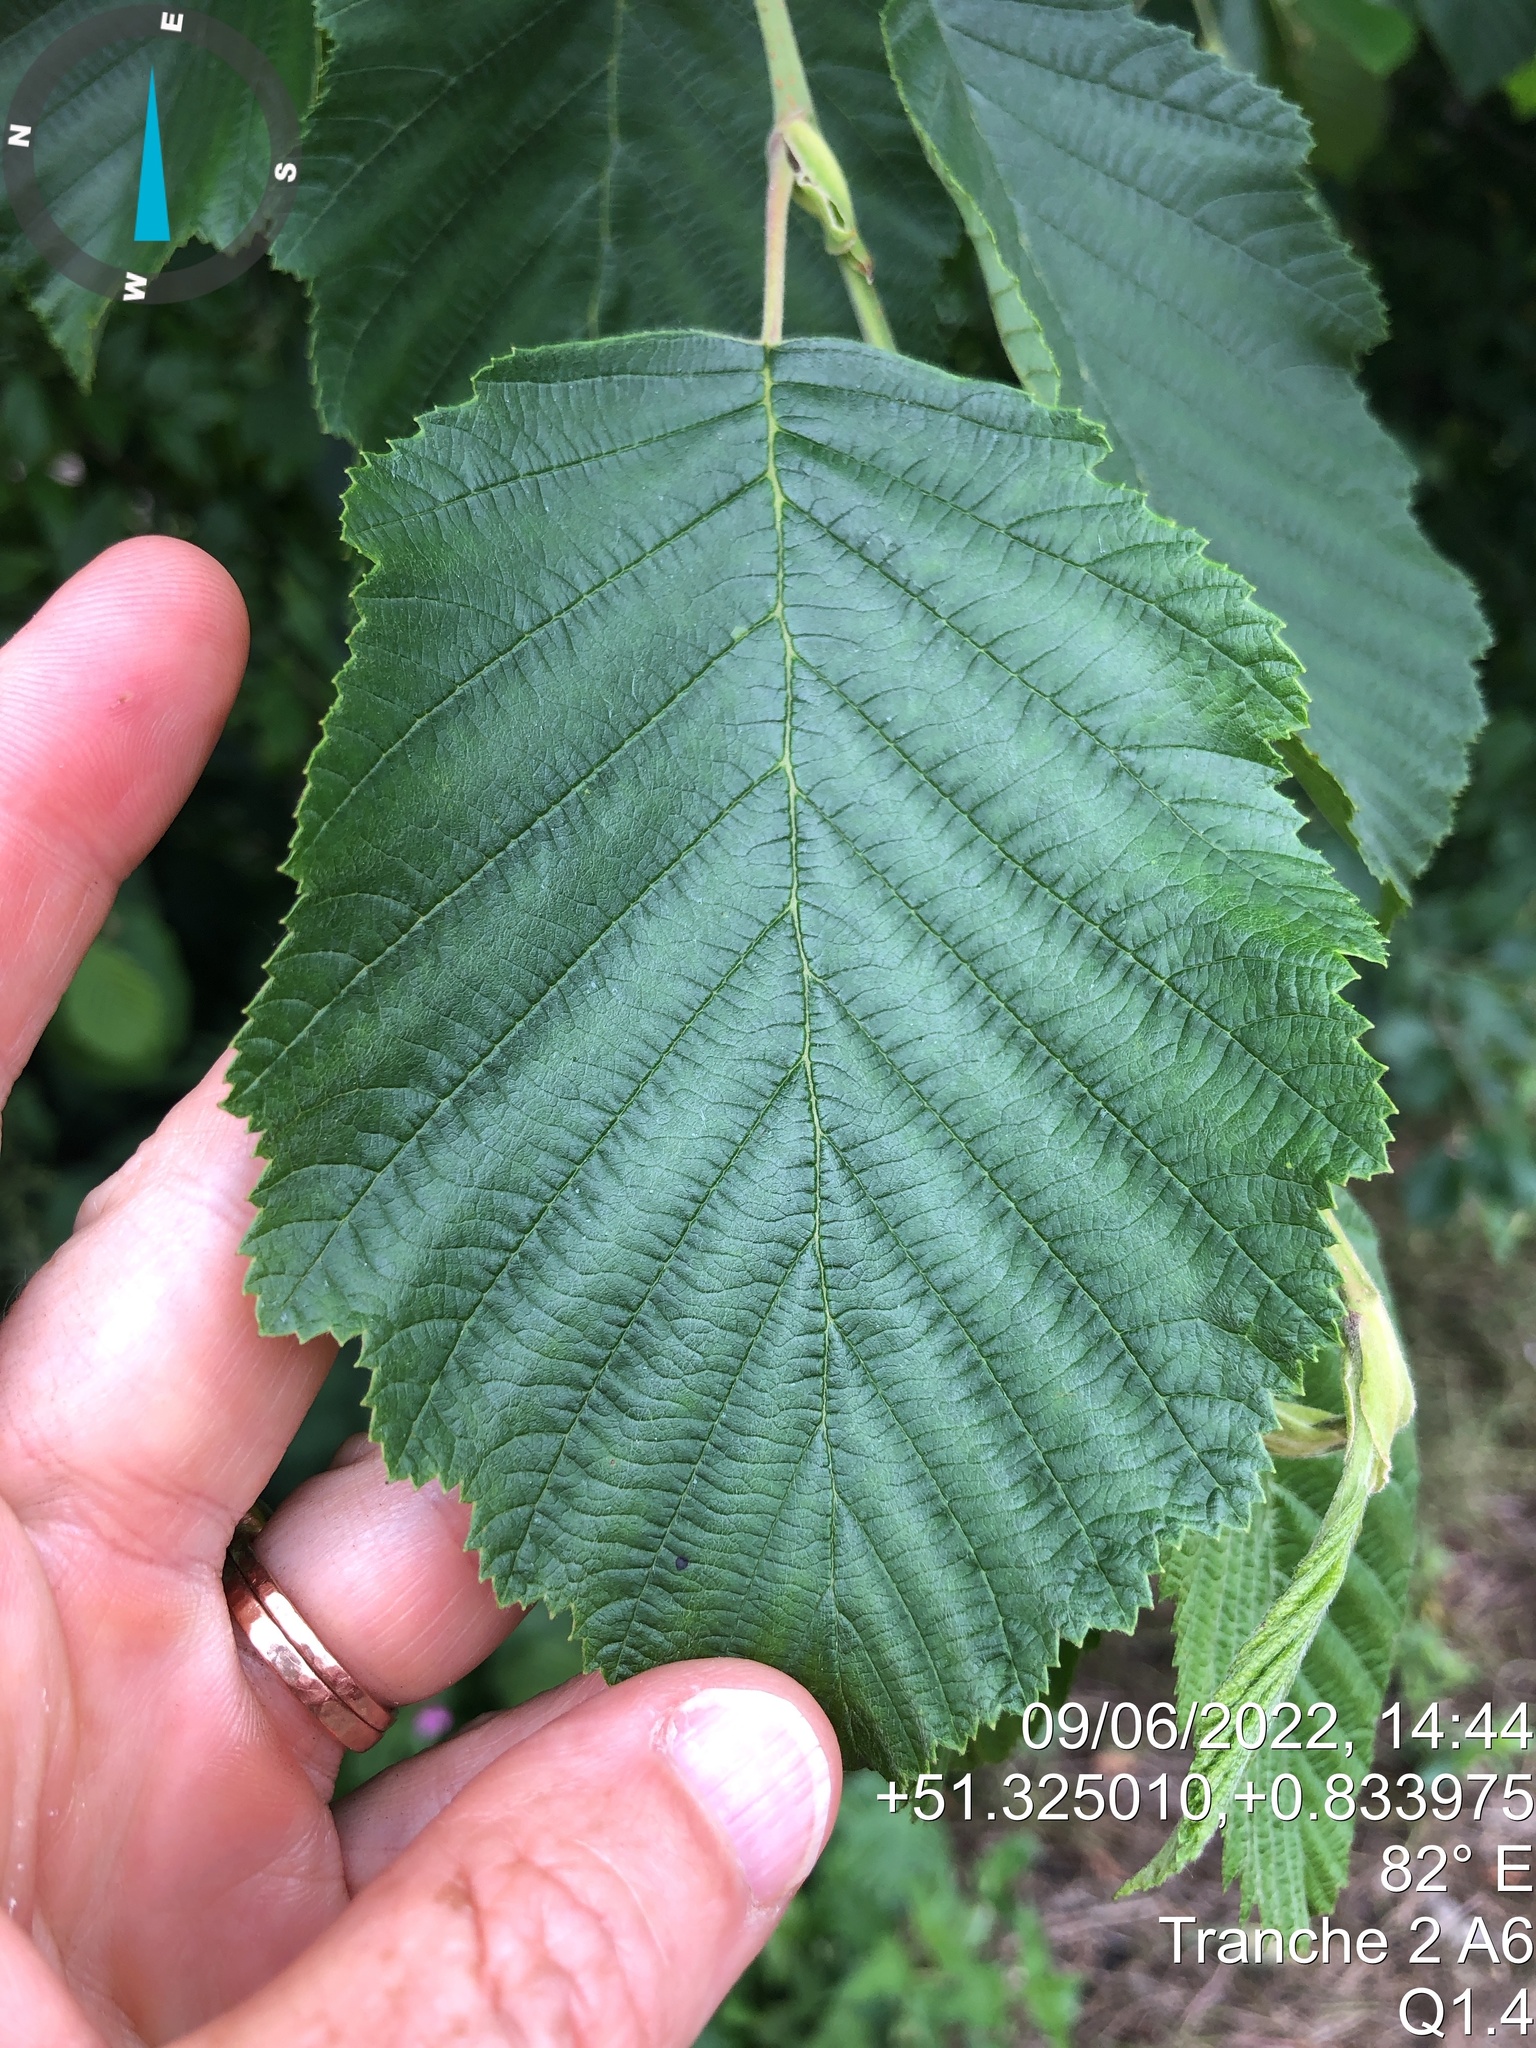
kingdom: Plantae
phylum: Tracheophyta
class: Magnoliopsida
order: Fagales
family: Betulaceae
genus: Alnus
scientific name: Alnus incana
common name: Grey alder
